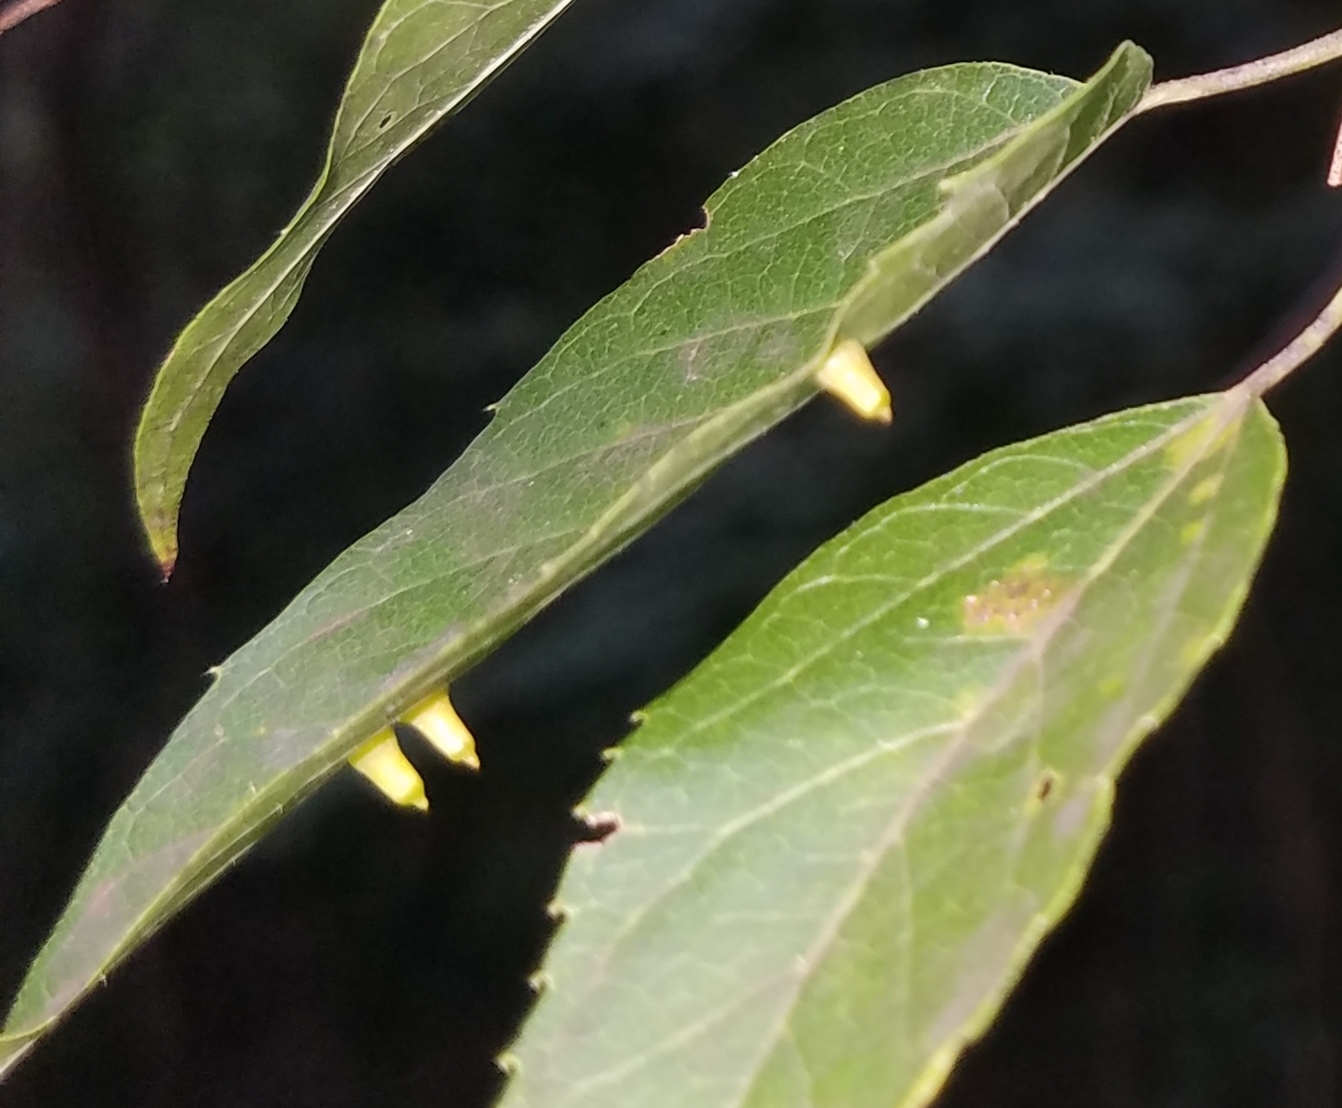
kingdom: Animalia
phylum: Arthropoda
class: Insecta
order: Diptera
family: Cecidomyiidae
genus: Celticecis
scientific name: Celticecis aciculata
